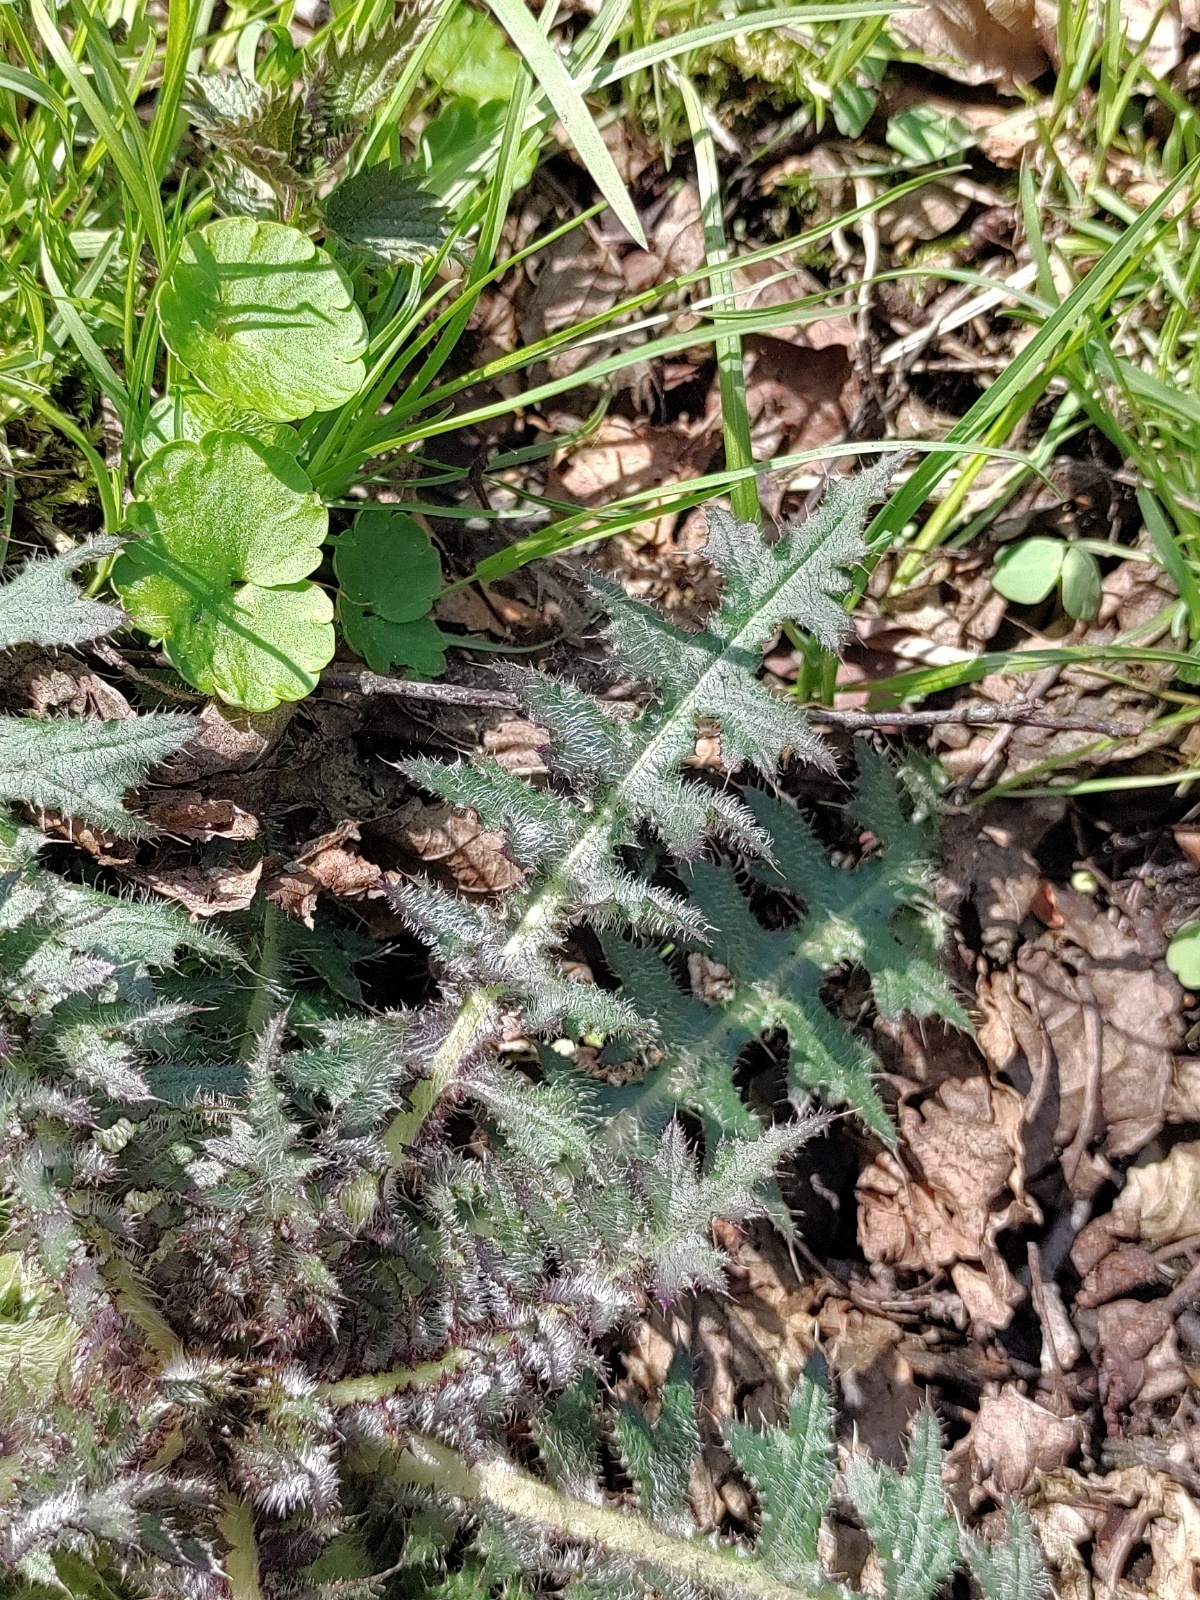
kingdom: Plantae
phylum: Tracheophyta
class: Magnoliopsida
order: Asterales
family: Asteraceae
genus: Cirsium
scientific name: Cirsium palustre
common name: Marsh thistle
